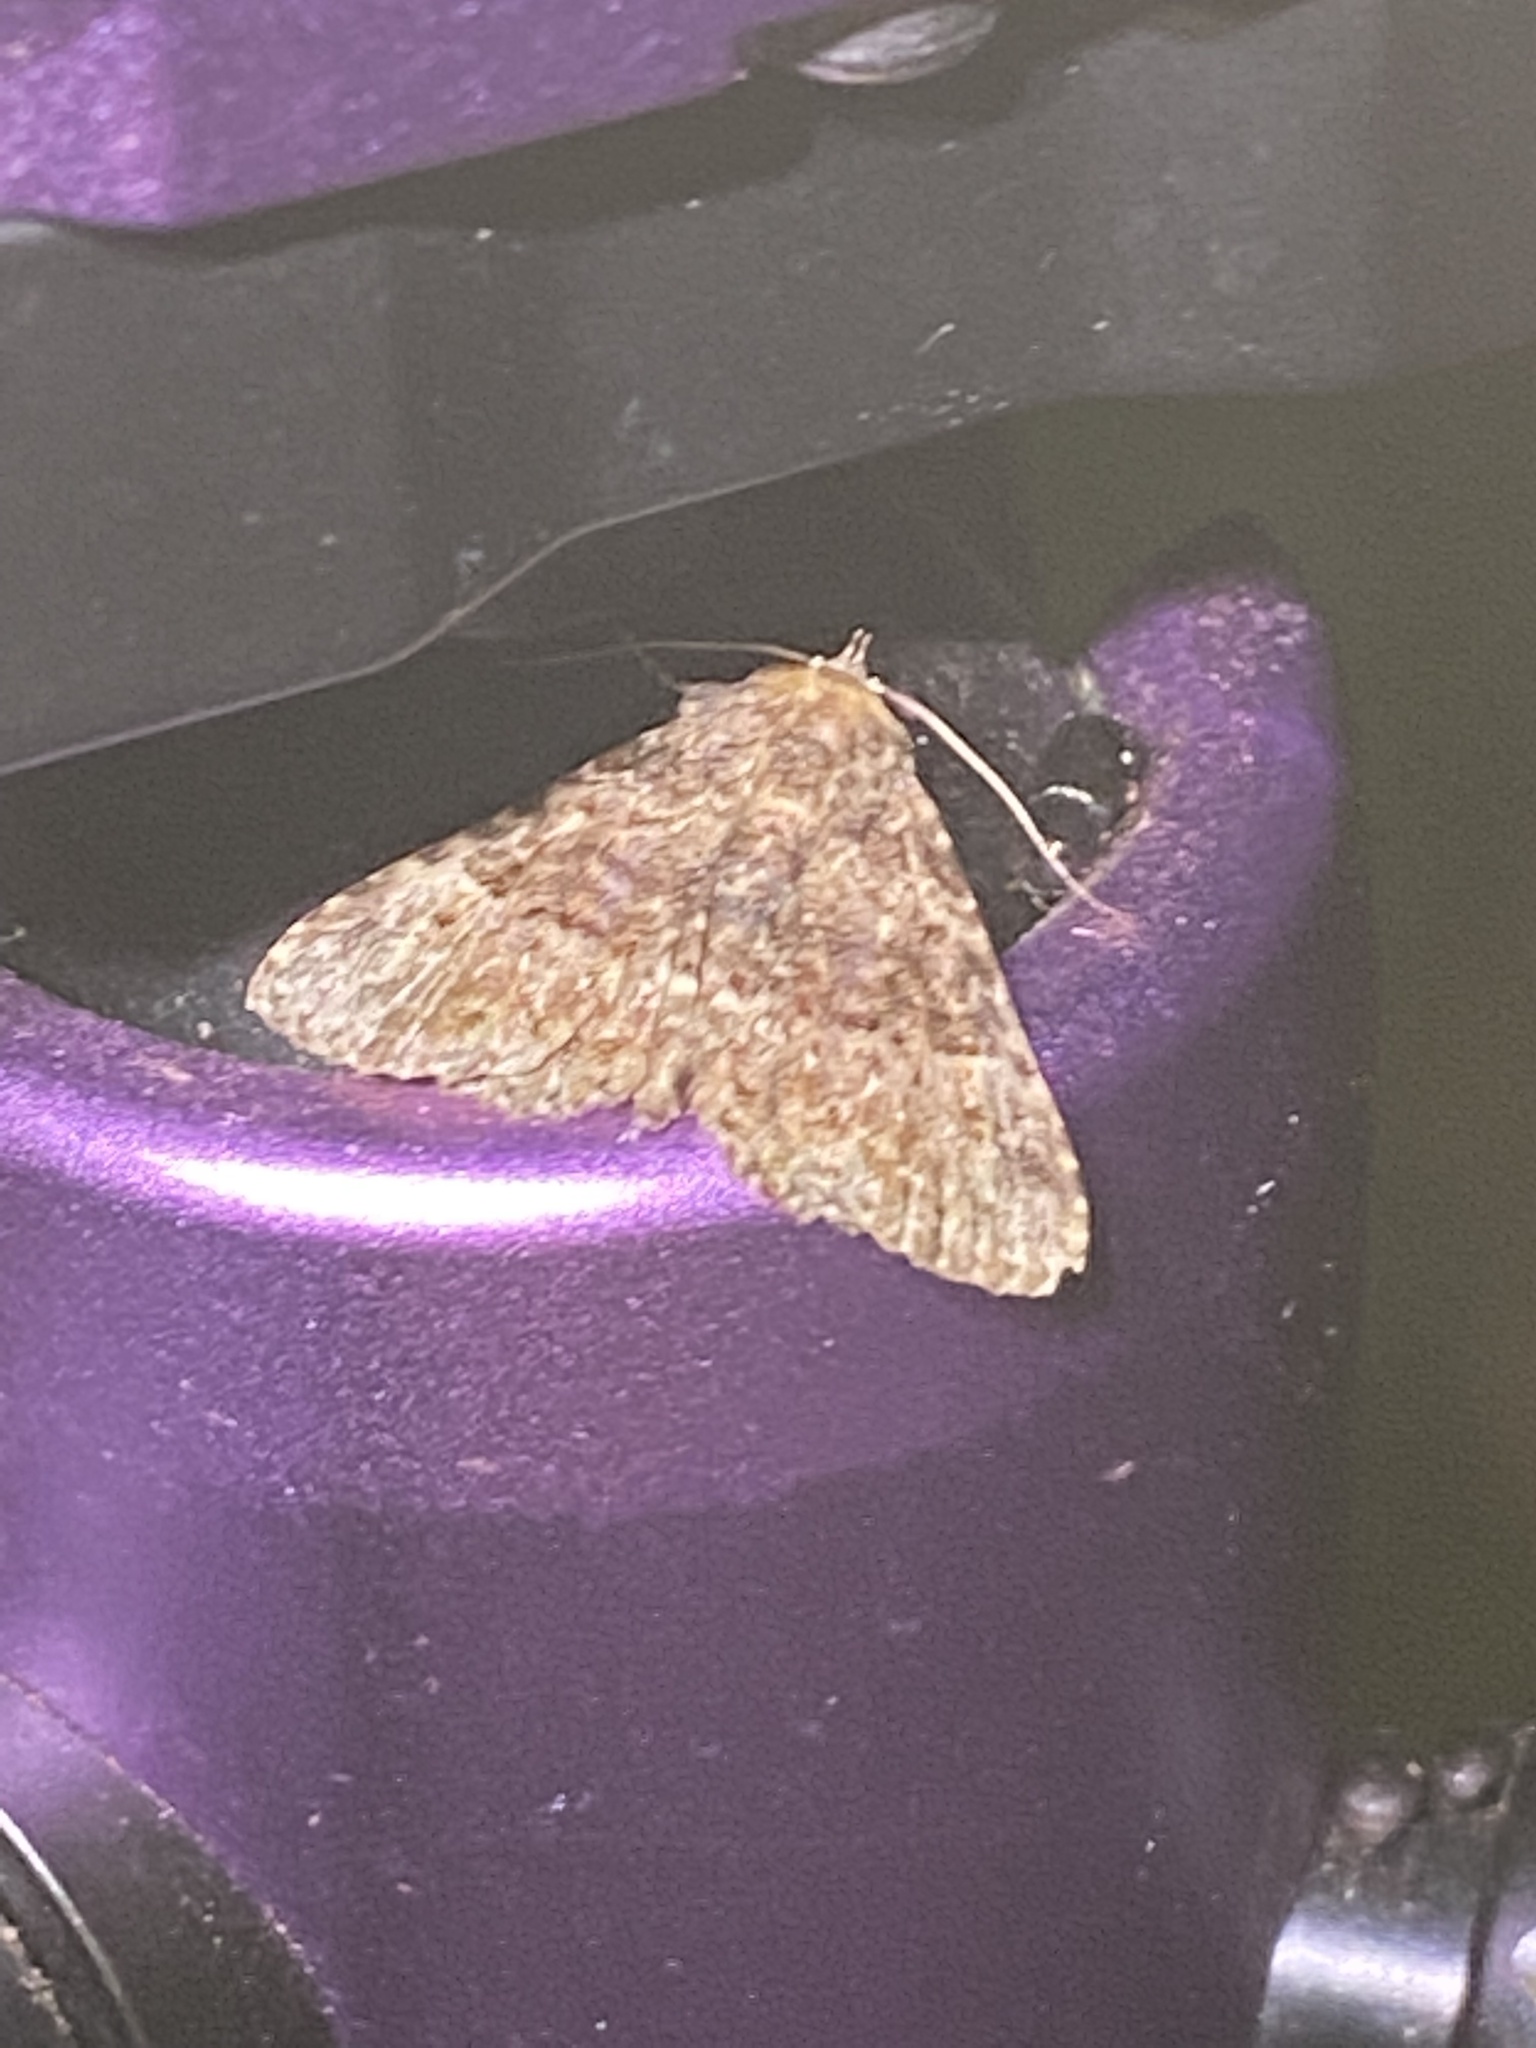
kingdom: Animalia
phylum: Arthropoda
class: Insecta
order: Lepidoptera
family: Erebidae
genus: Metalectra
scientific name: Metalectra discalis
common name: Common fungus moth
